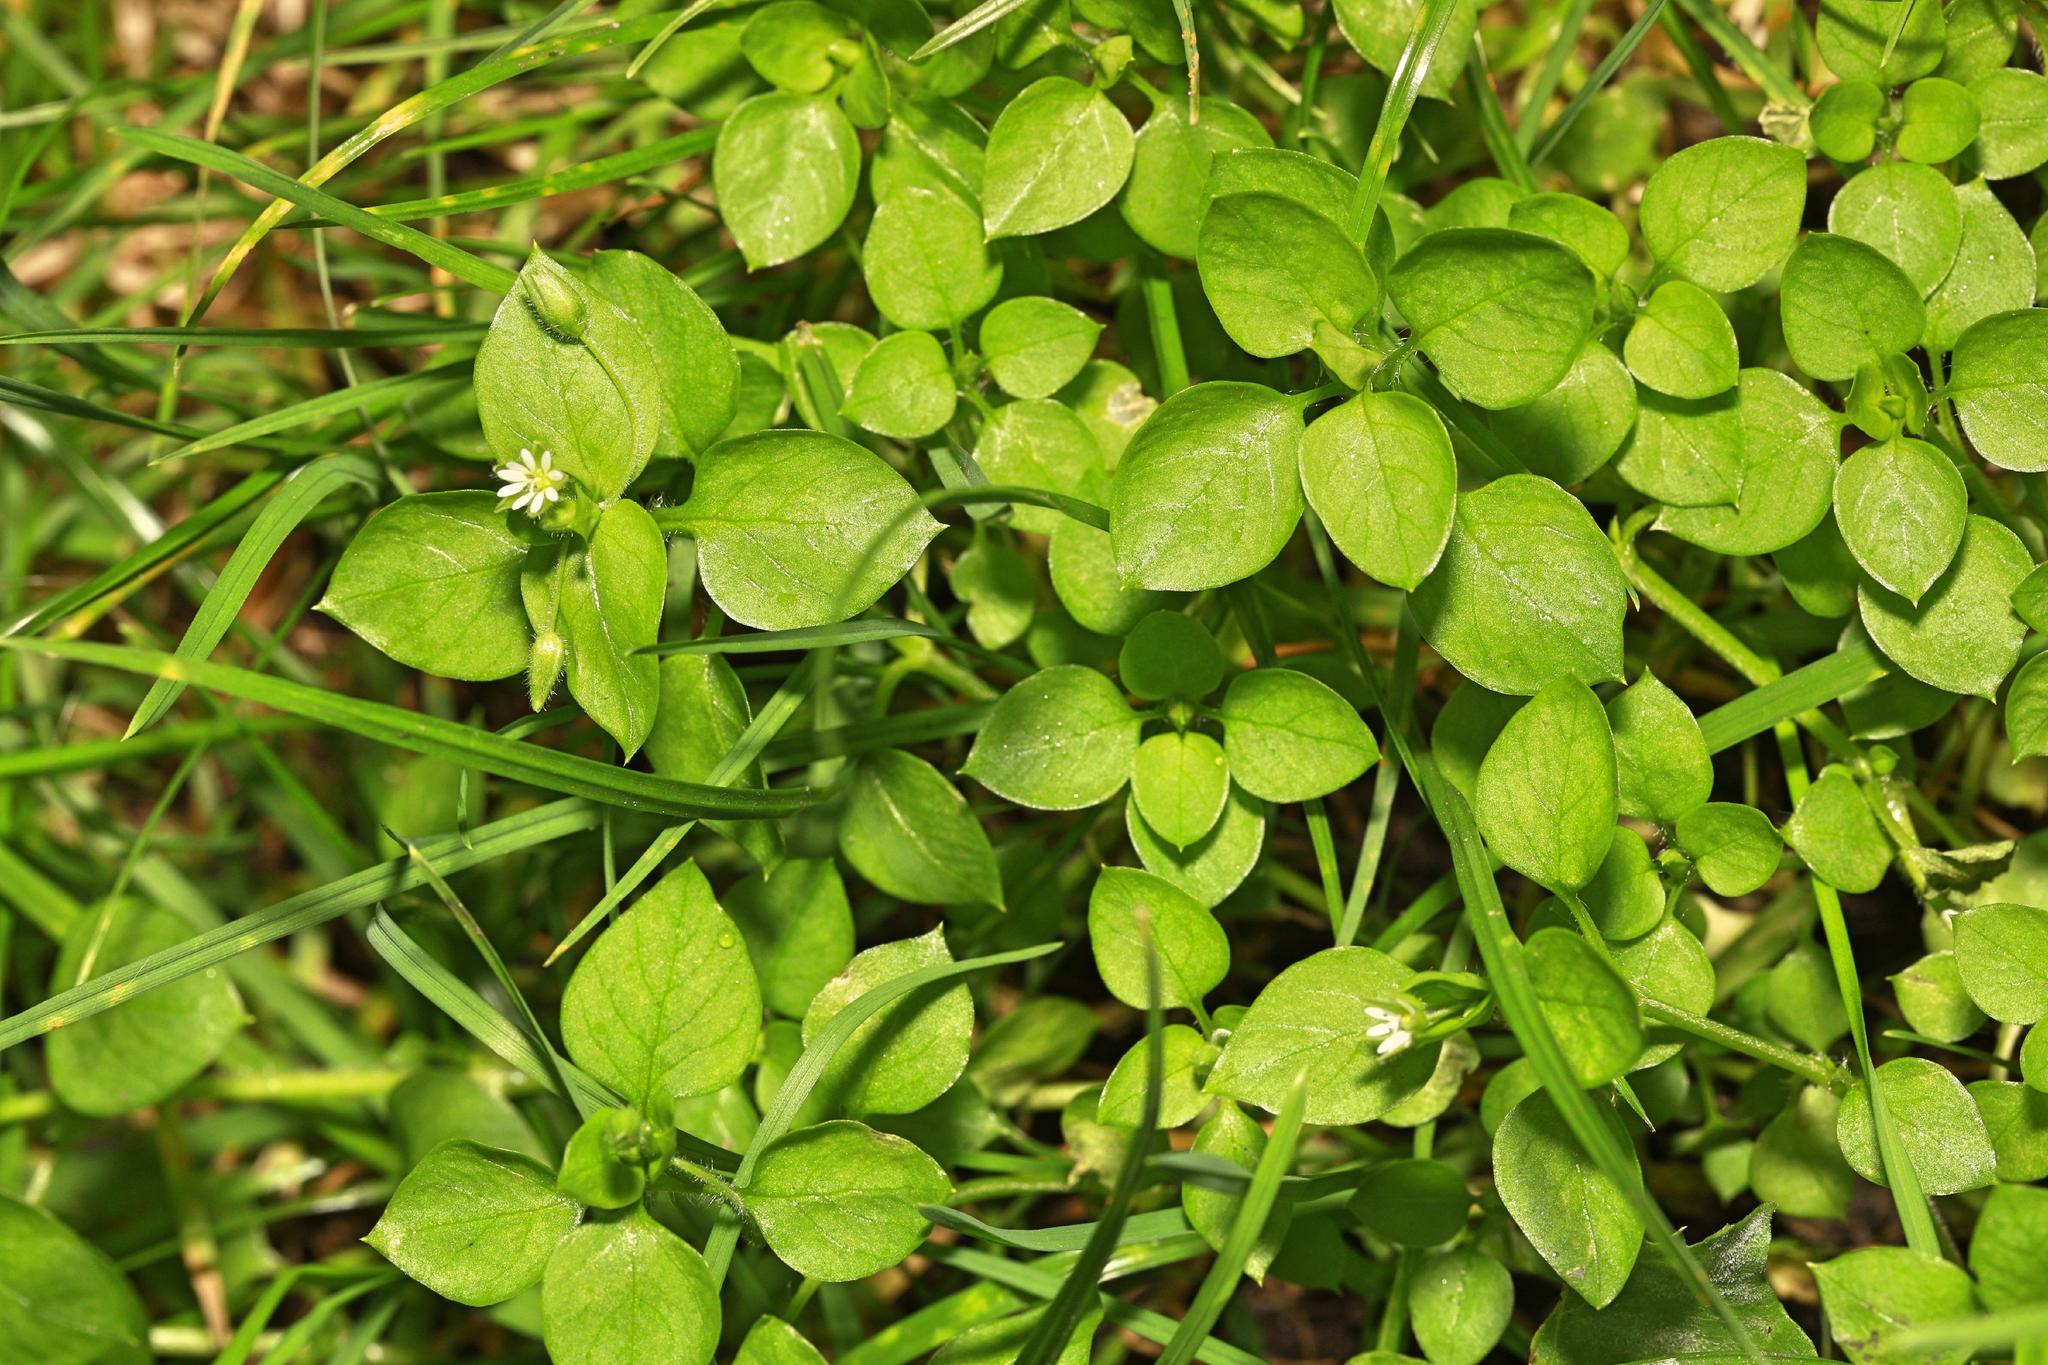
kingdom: Plantae
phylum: Tracheophyta
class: Magnoliopsida
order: Caryophyllales
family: Caryophyllaceae
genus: Stellaria
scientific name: Stellaria media
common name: Common chickweed
